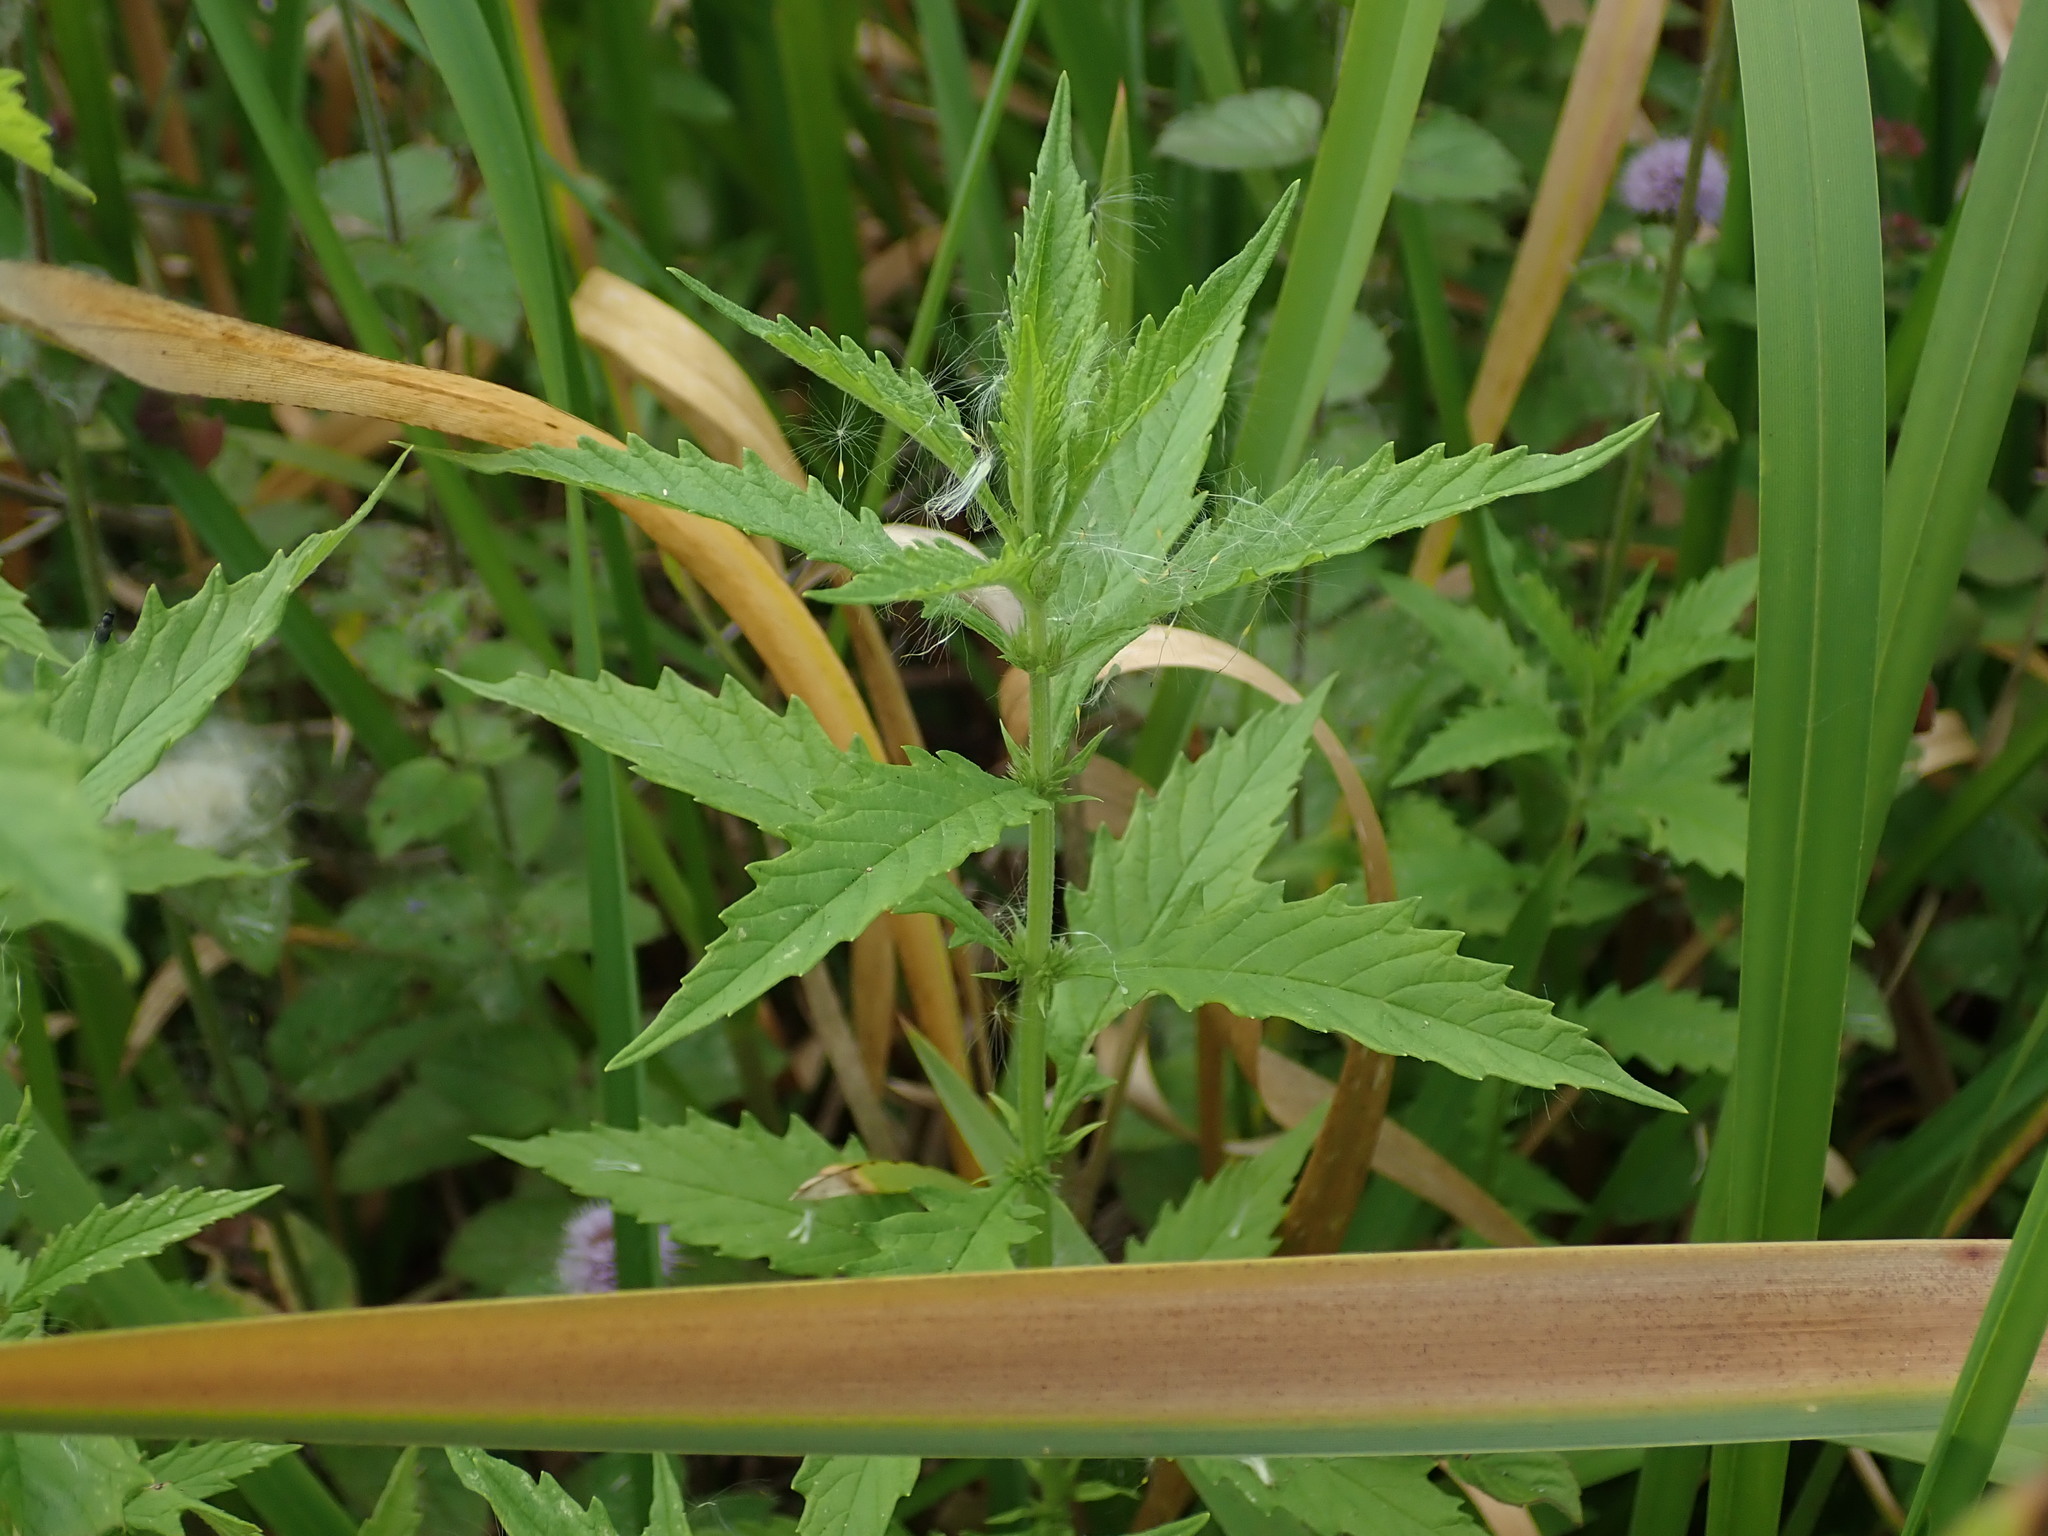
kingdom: Plantae
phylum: Tracheophyta
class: Magnoliopsida
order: Lamiales
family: Lamiaceae
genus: Lycopus
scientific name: Lycopus europaeus
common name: European bugleweed
